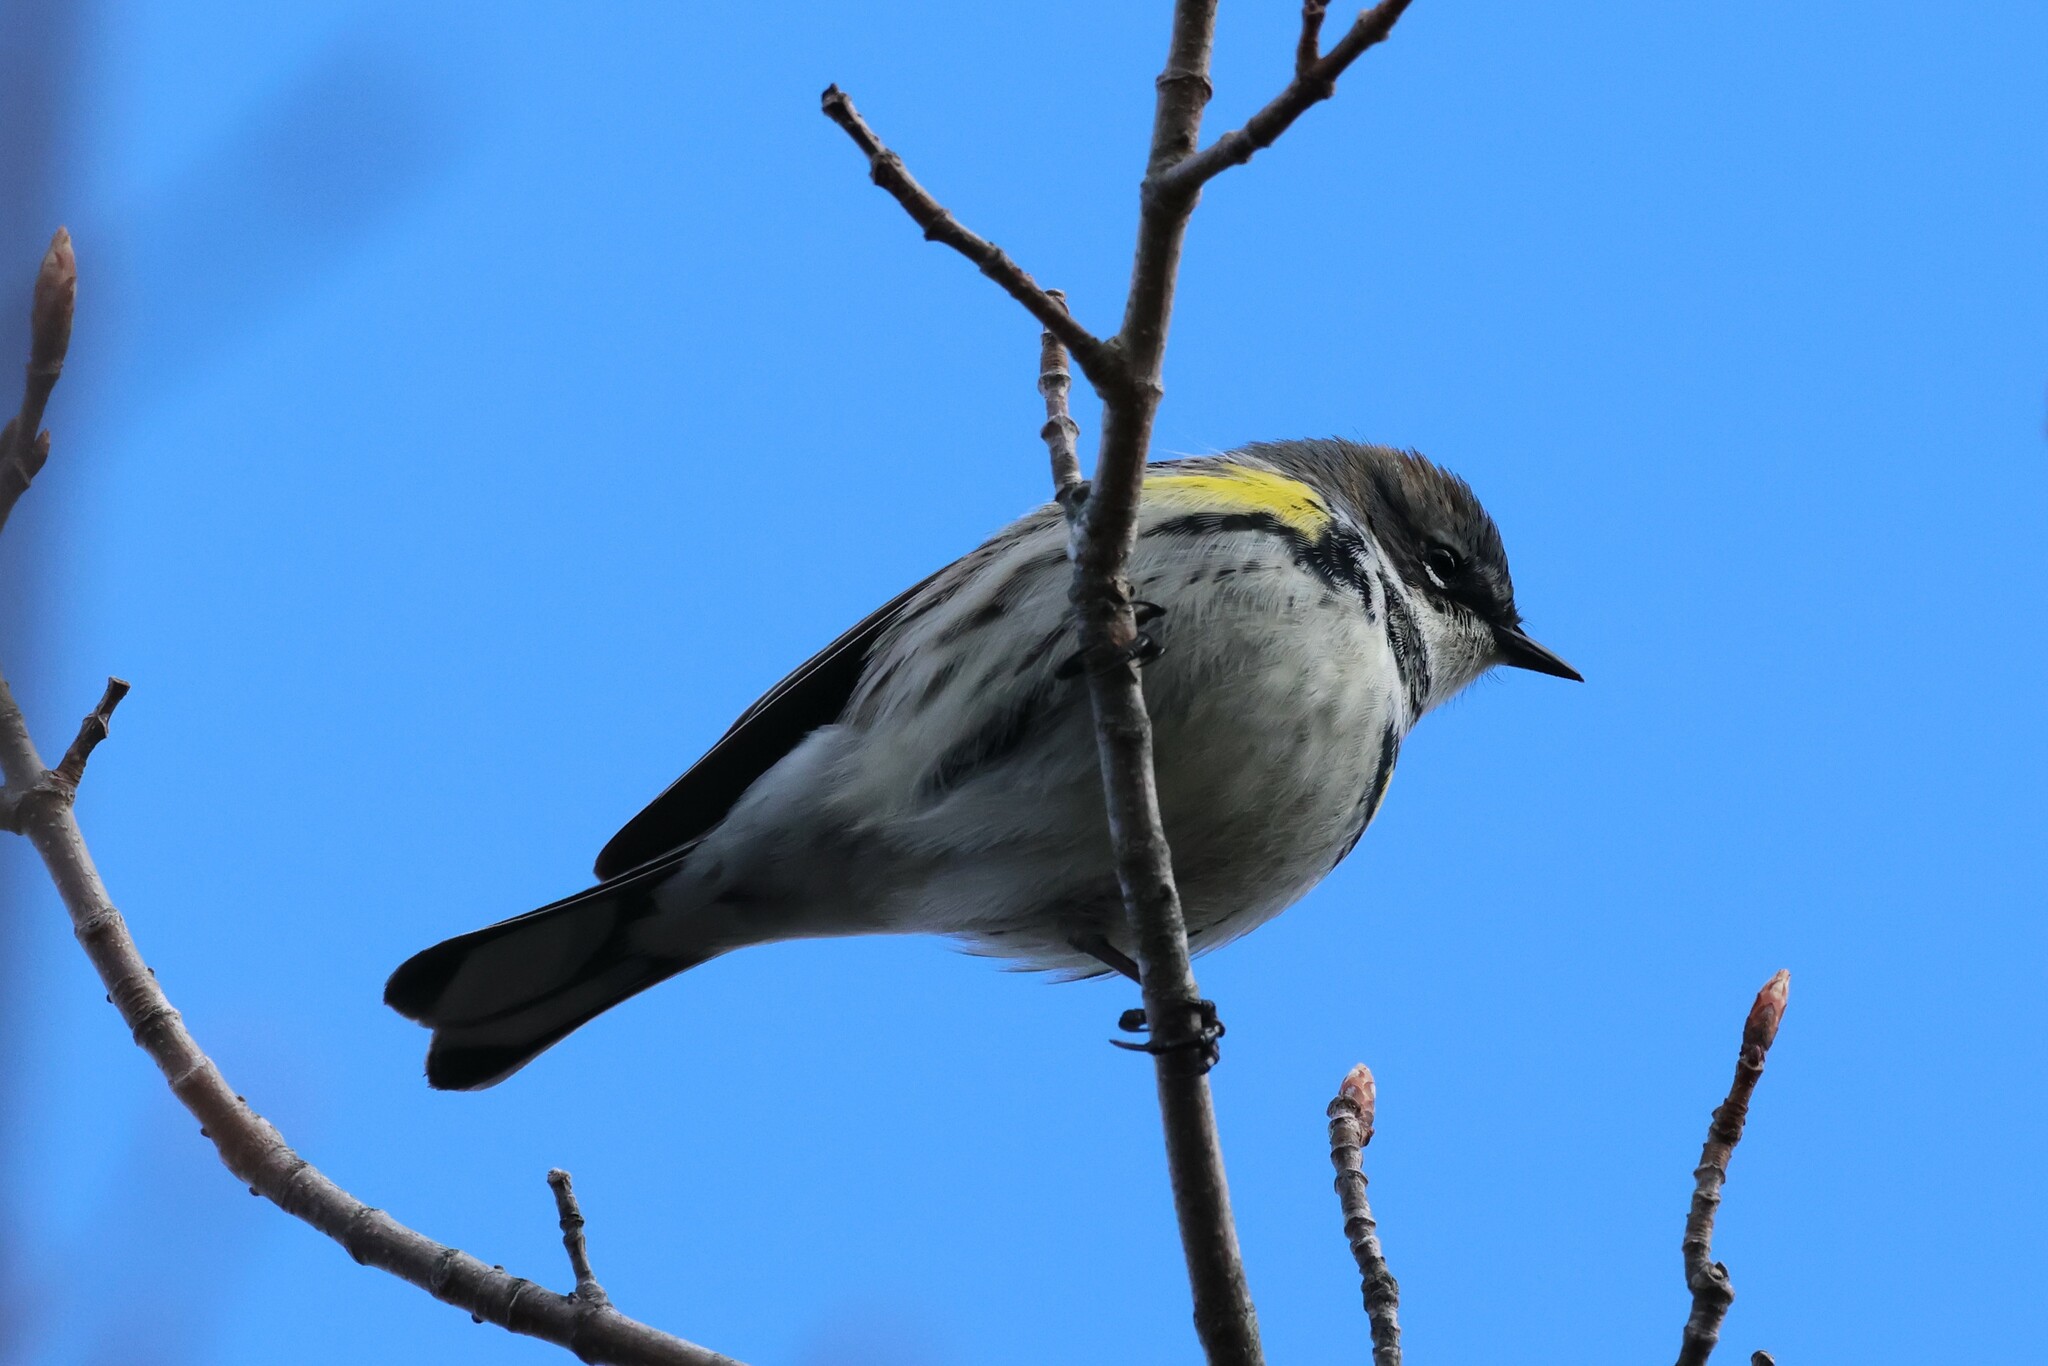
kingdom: Animalia
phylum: Chordata
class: Aves
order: Passeriformes
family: Parulidae
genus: Setophaga
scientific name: Setophaga coronata
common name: Myrtle warbler
